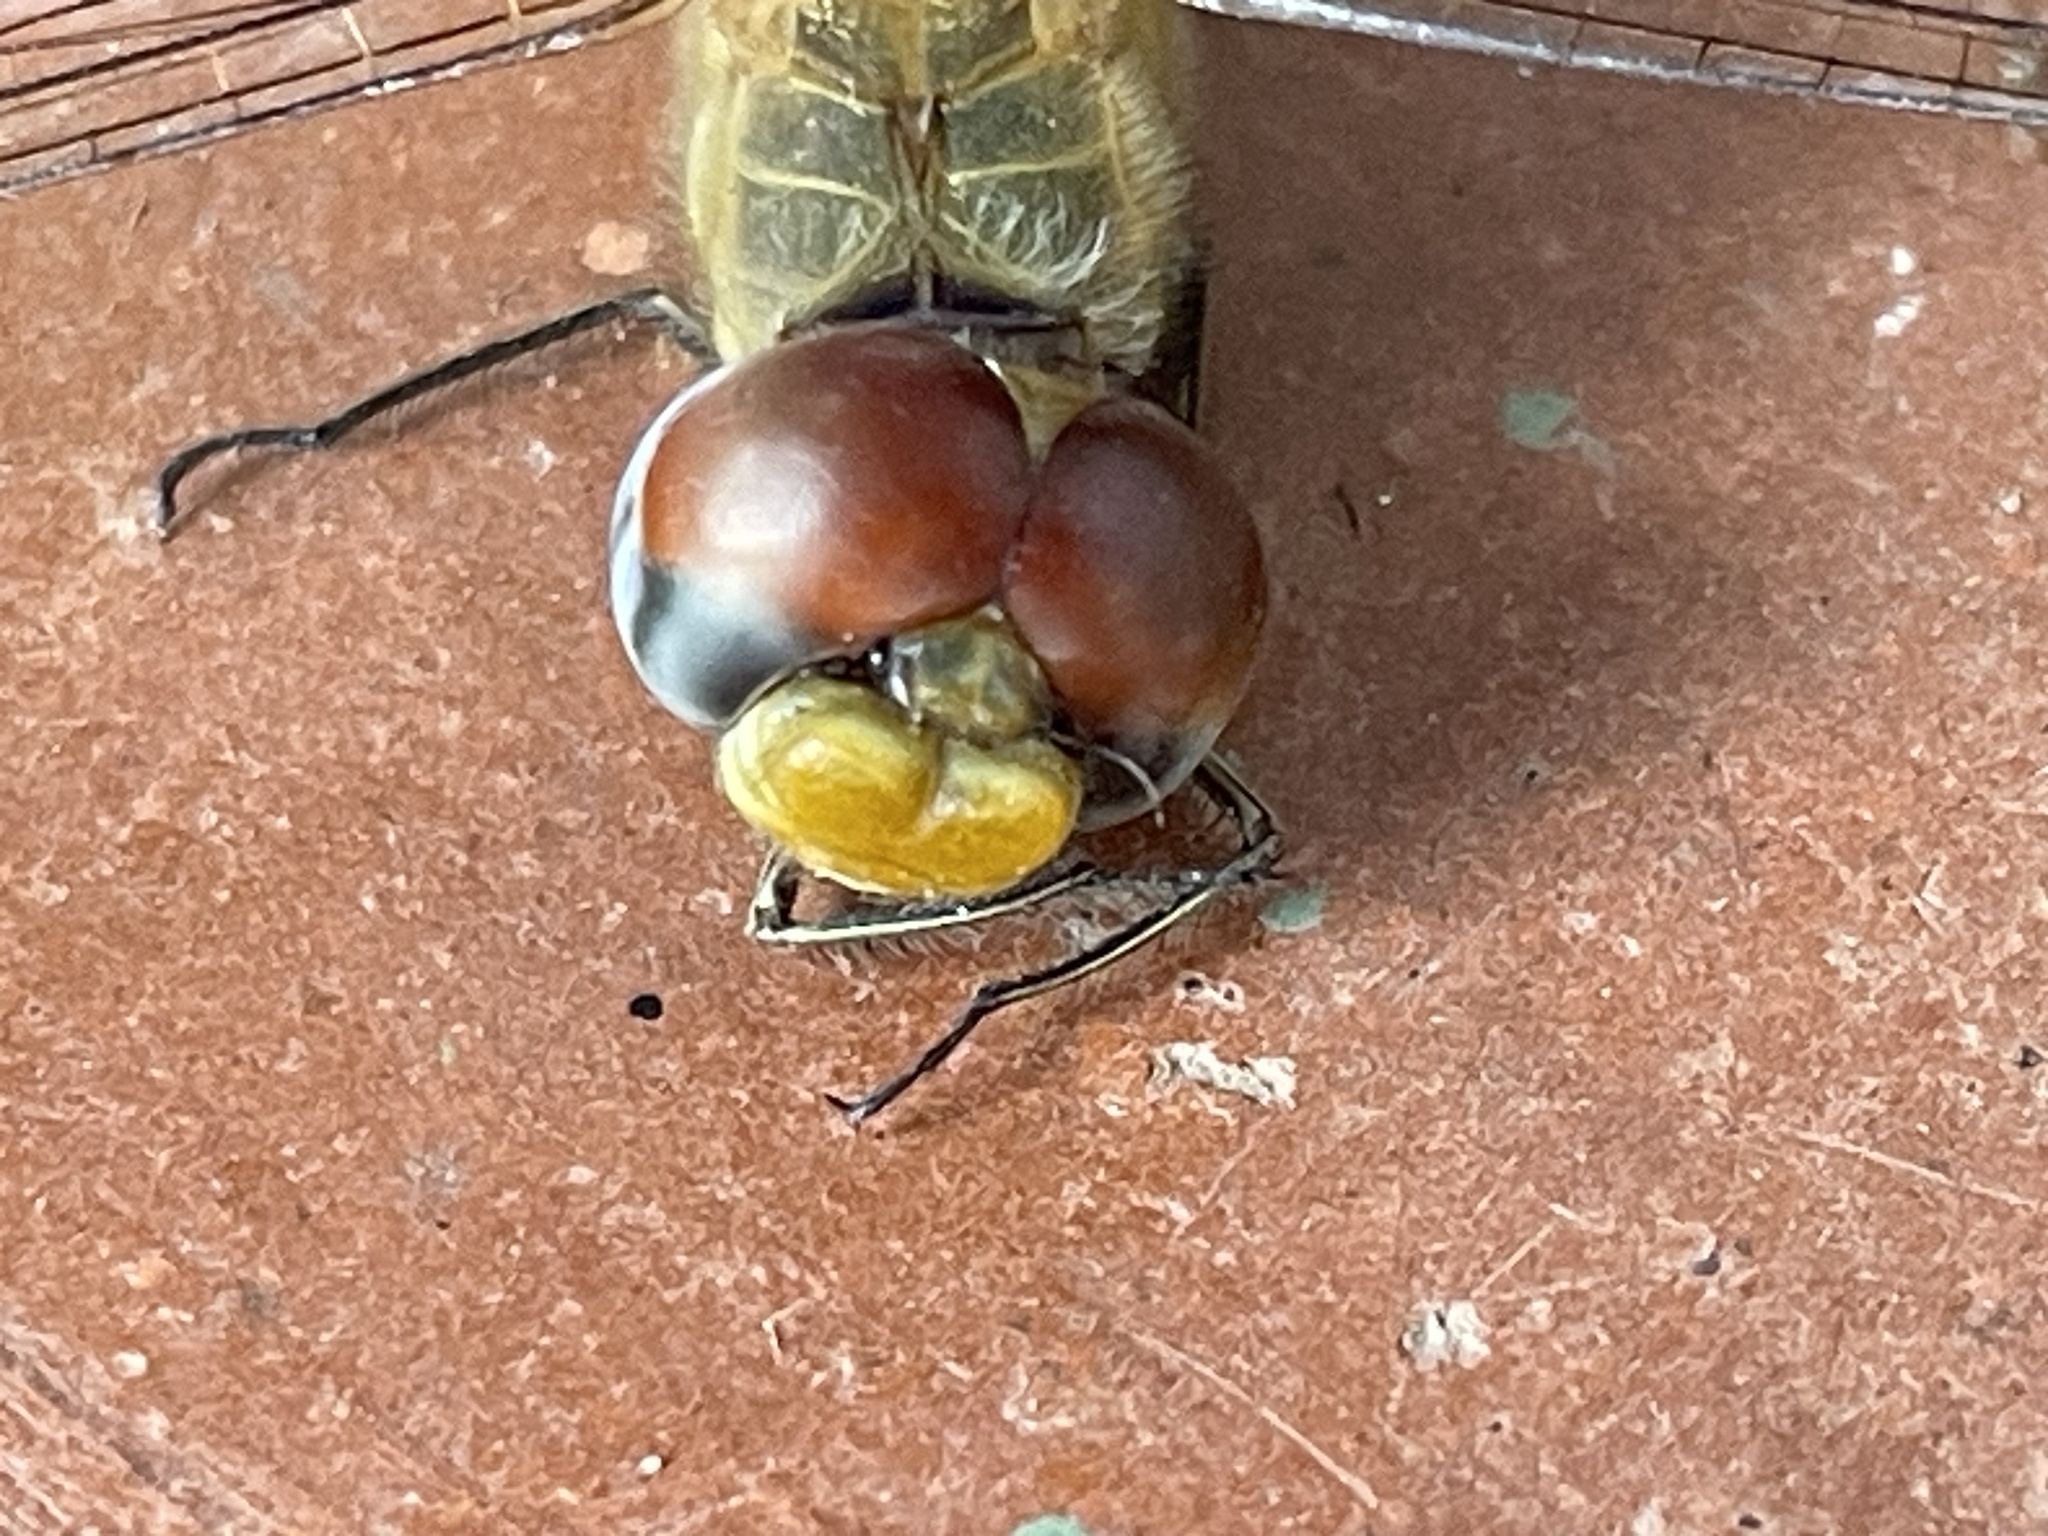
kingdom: Animalia
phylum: Arthropoda
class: Insecta
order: Odonata
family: Libellulidae
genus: Pantala
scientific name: Pantala flavescens
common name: Wandering glider
